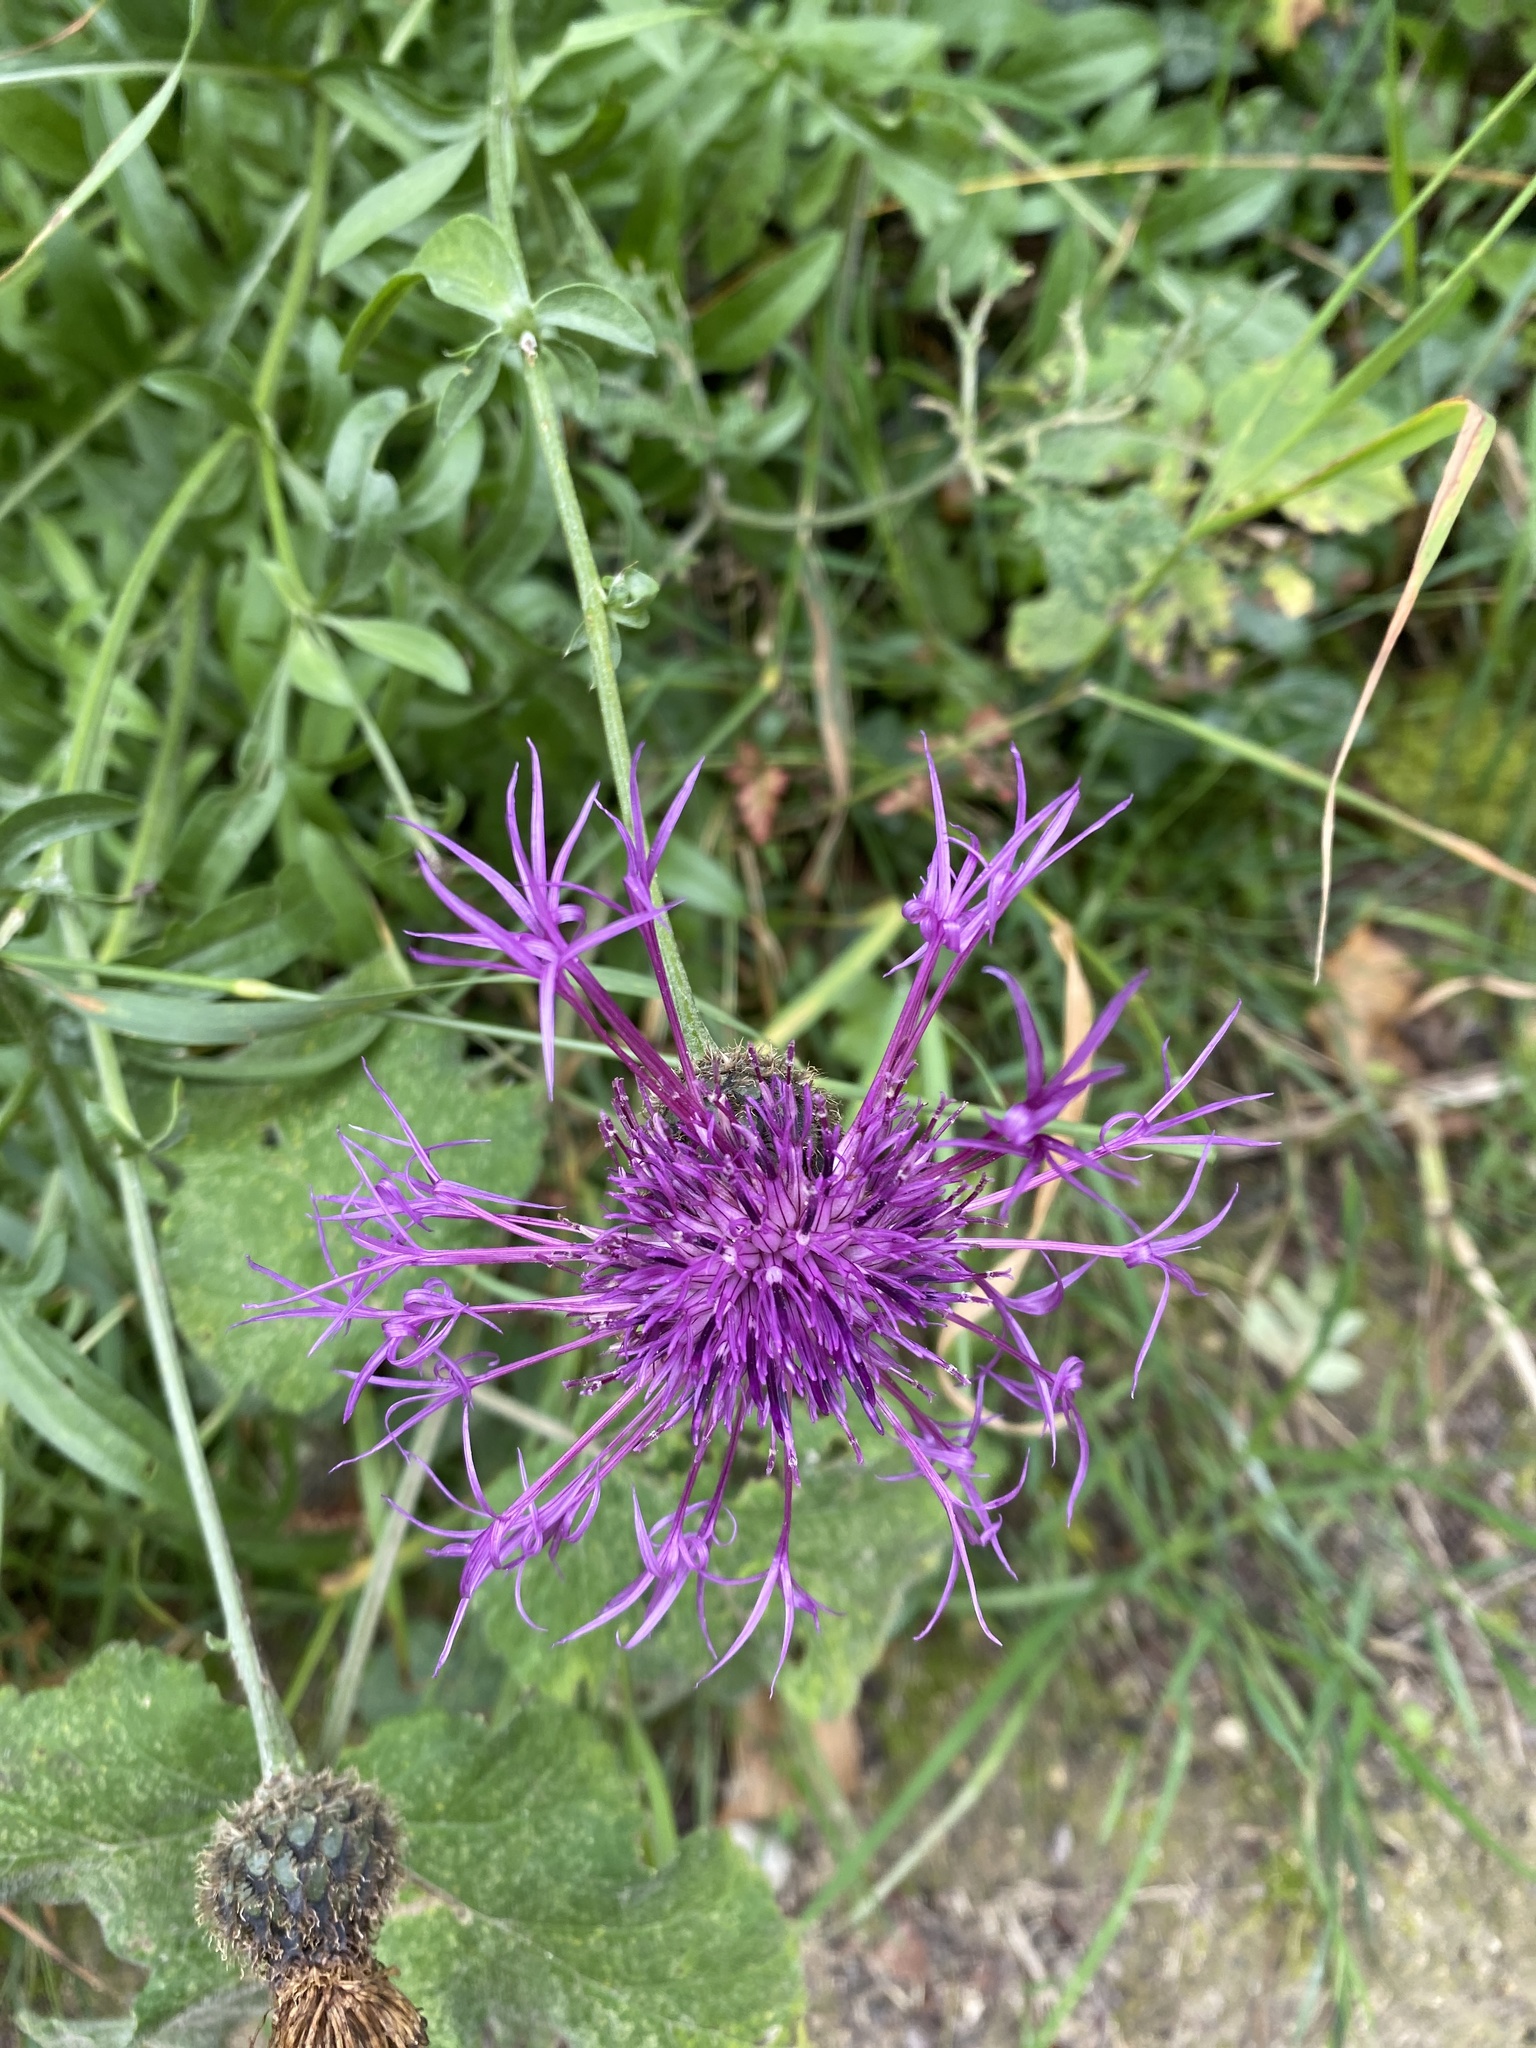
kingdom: Plantae
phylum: Tracheophyta
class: Magnoliopsida
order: Asterales
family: Asteraceae
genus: Centaurea
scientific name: Centaurea scabiosa
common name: Greater knapweed
